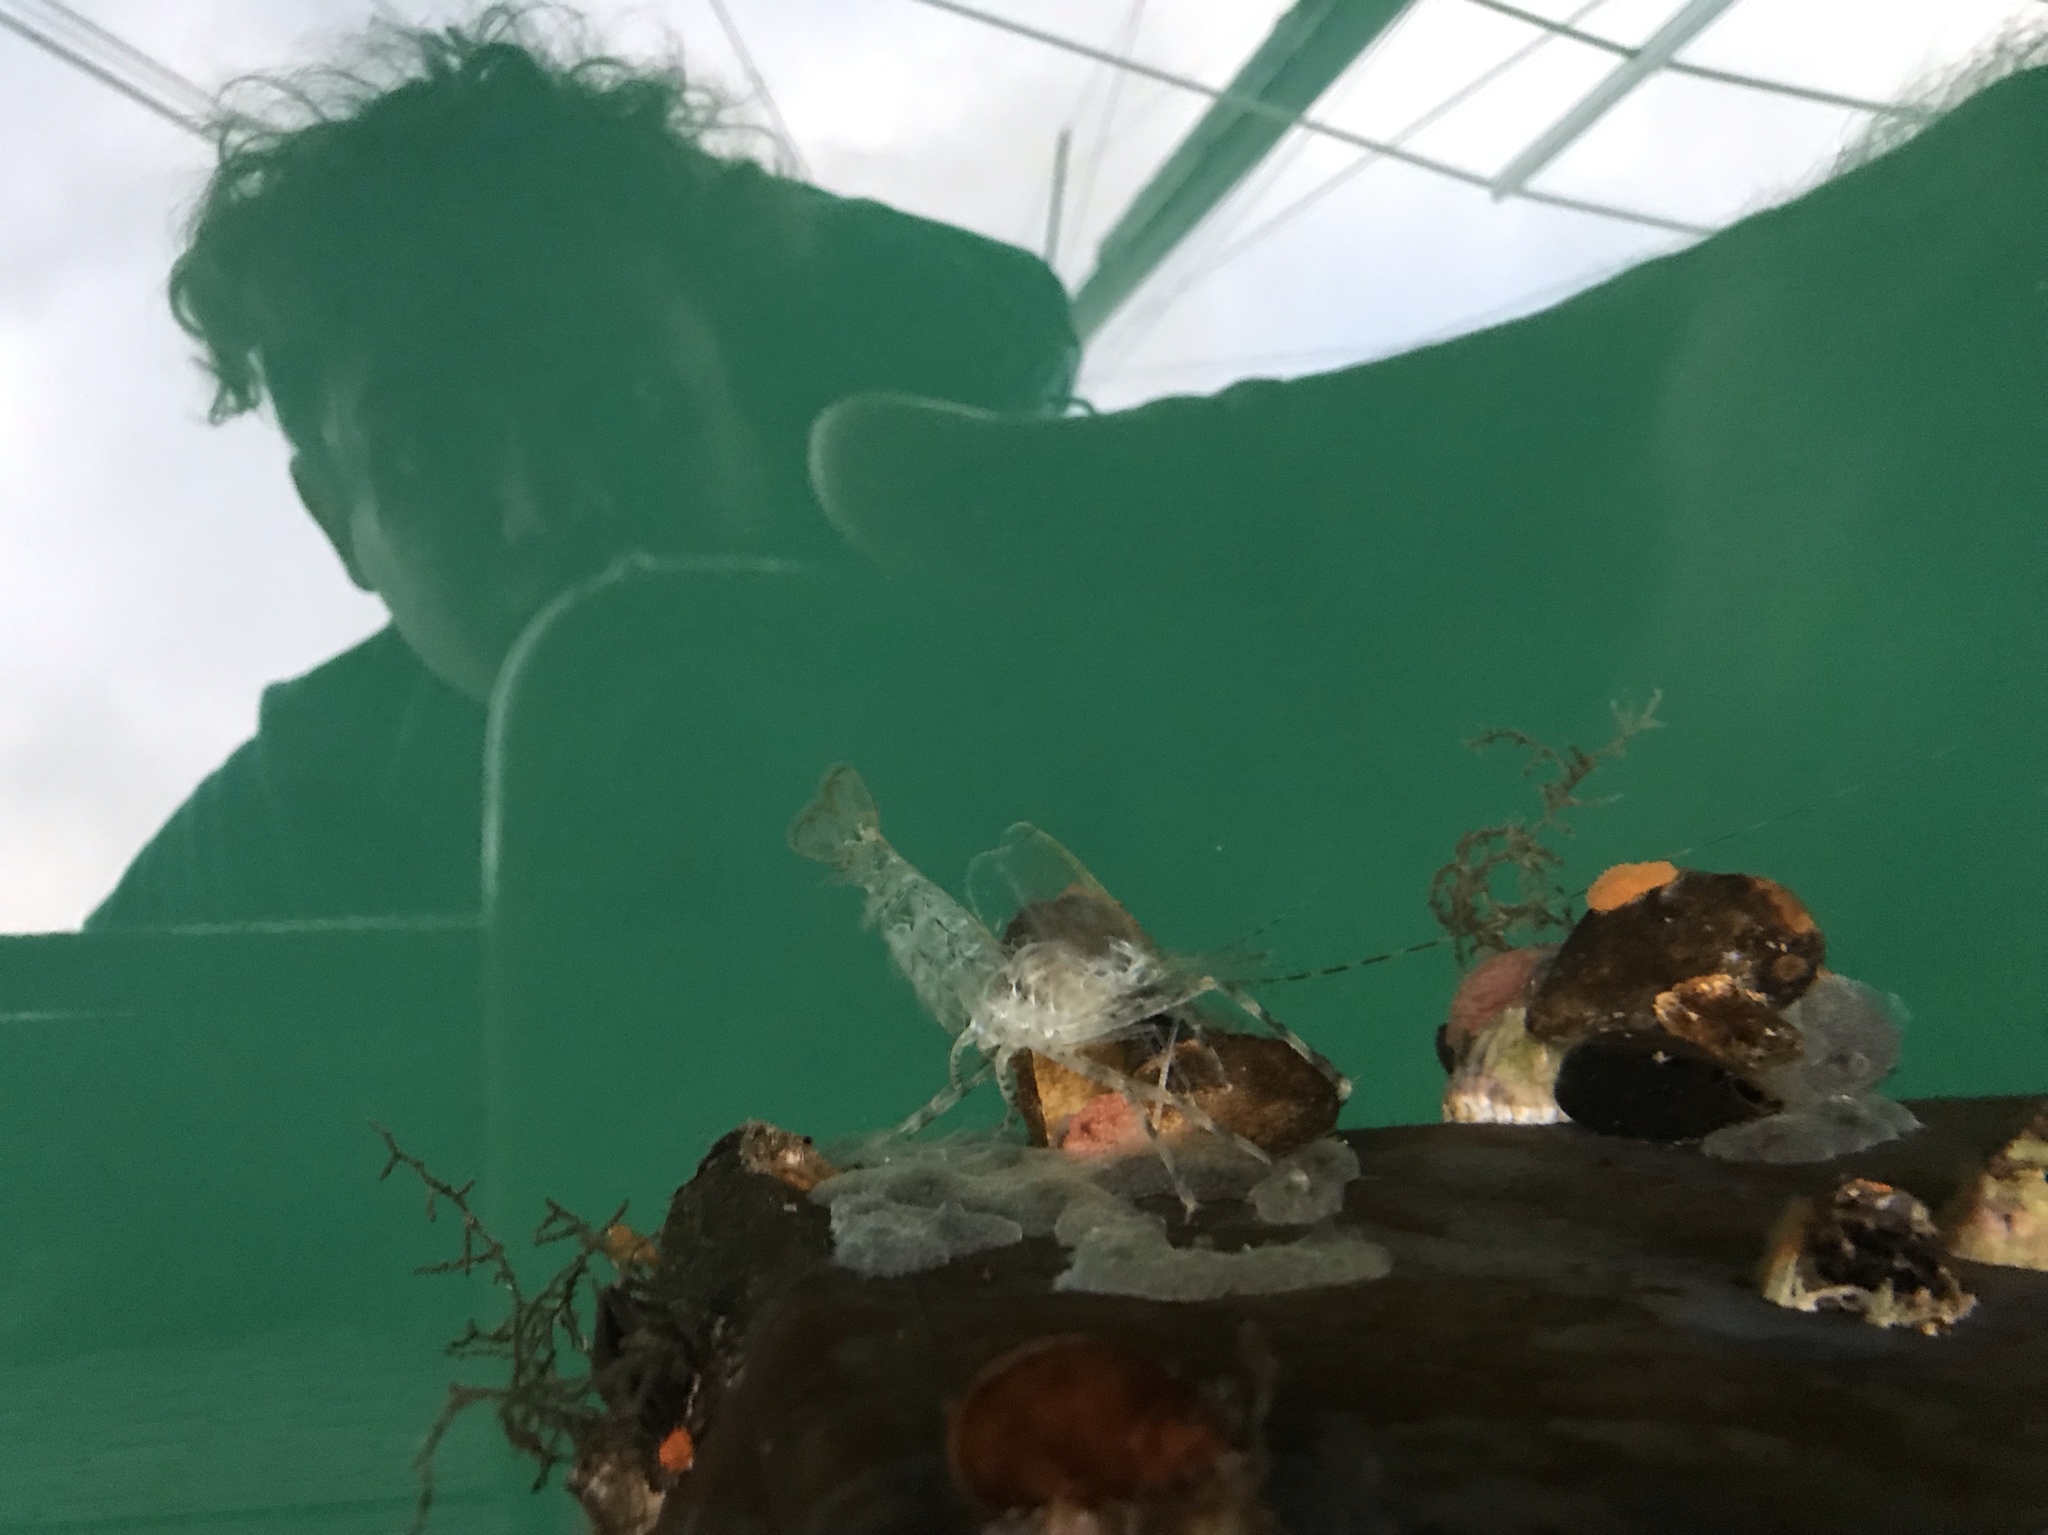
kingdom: Animalia
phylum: Arthropoda
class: Malacostraca
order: Decapoda
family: Pandalidae
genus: Pandalus
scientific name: Pandalus danae
